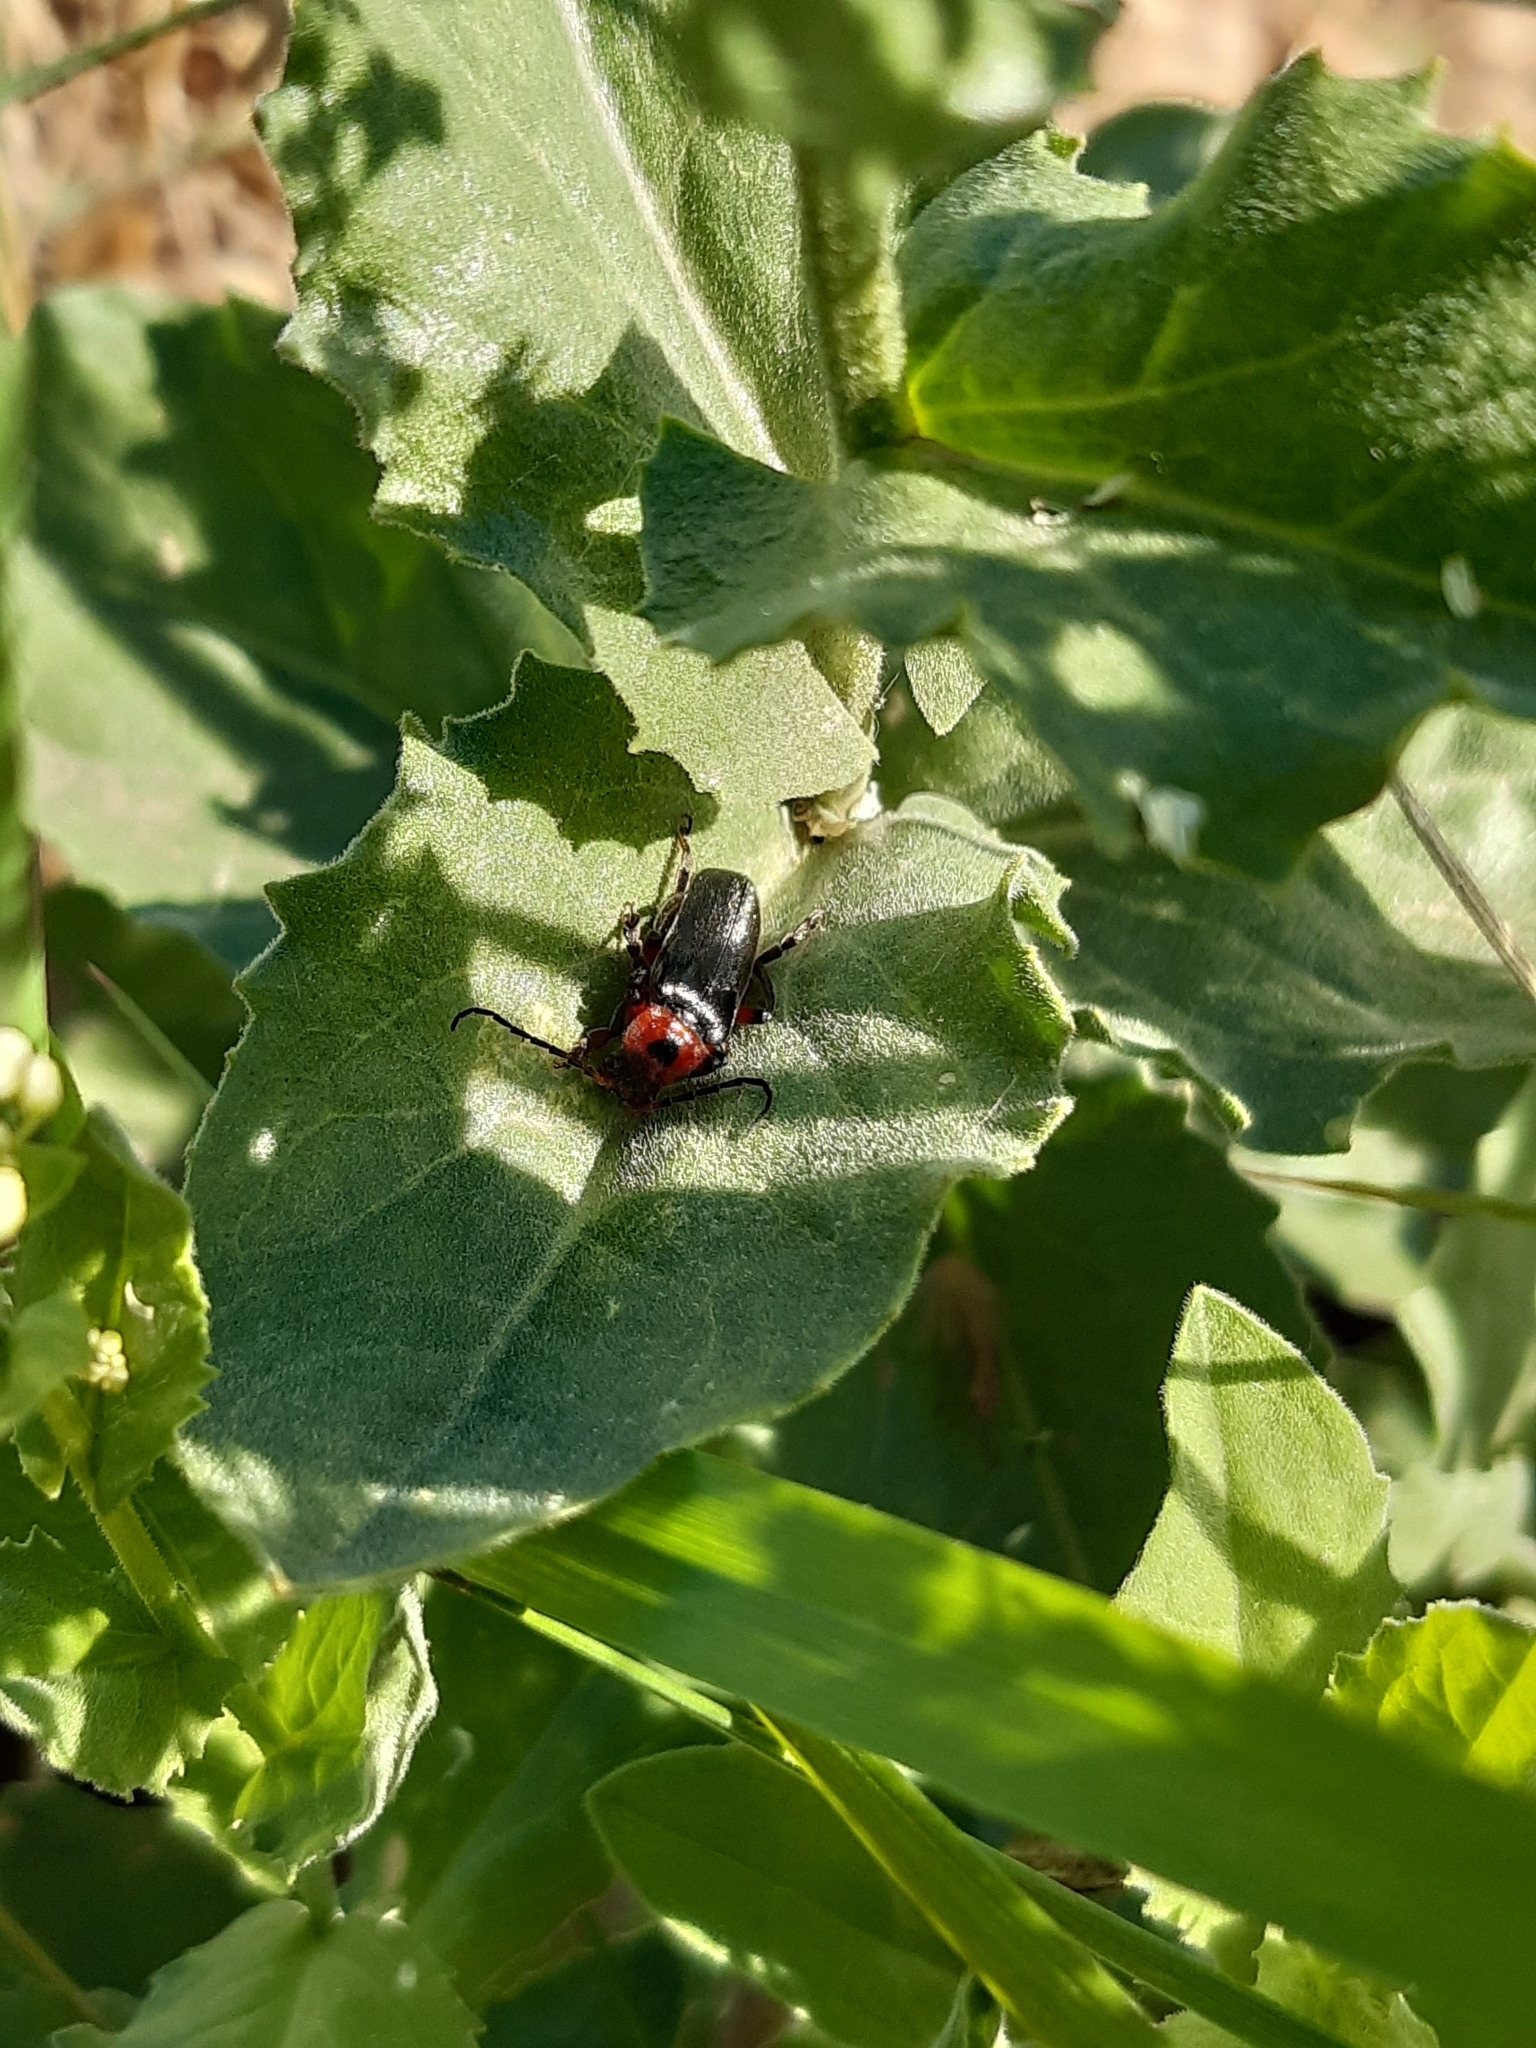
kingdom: Animalia
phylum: Arthropoda
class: Insecta
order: Coleoptera
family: Cantharidae
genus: Cantharis
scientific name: Cantharis rustica
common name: Soldier beetle
